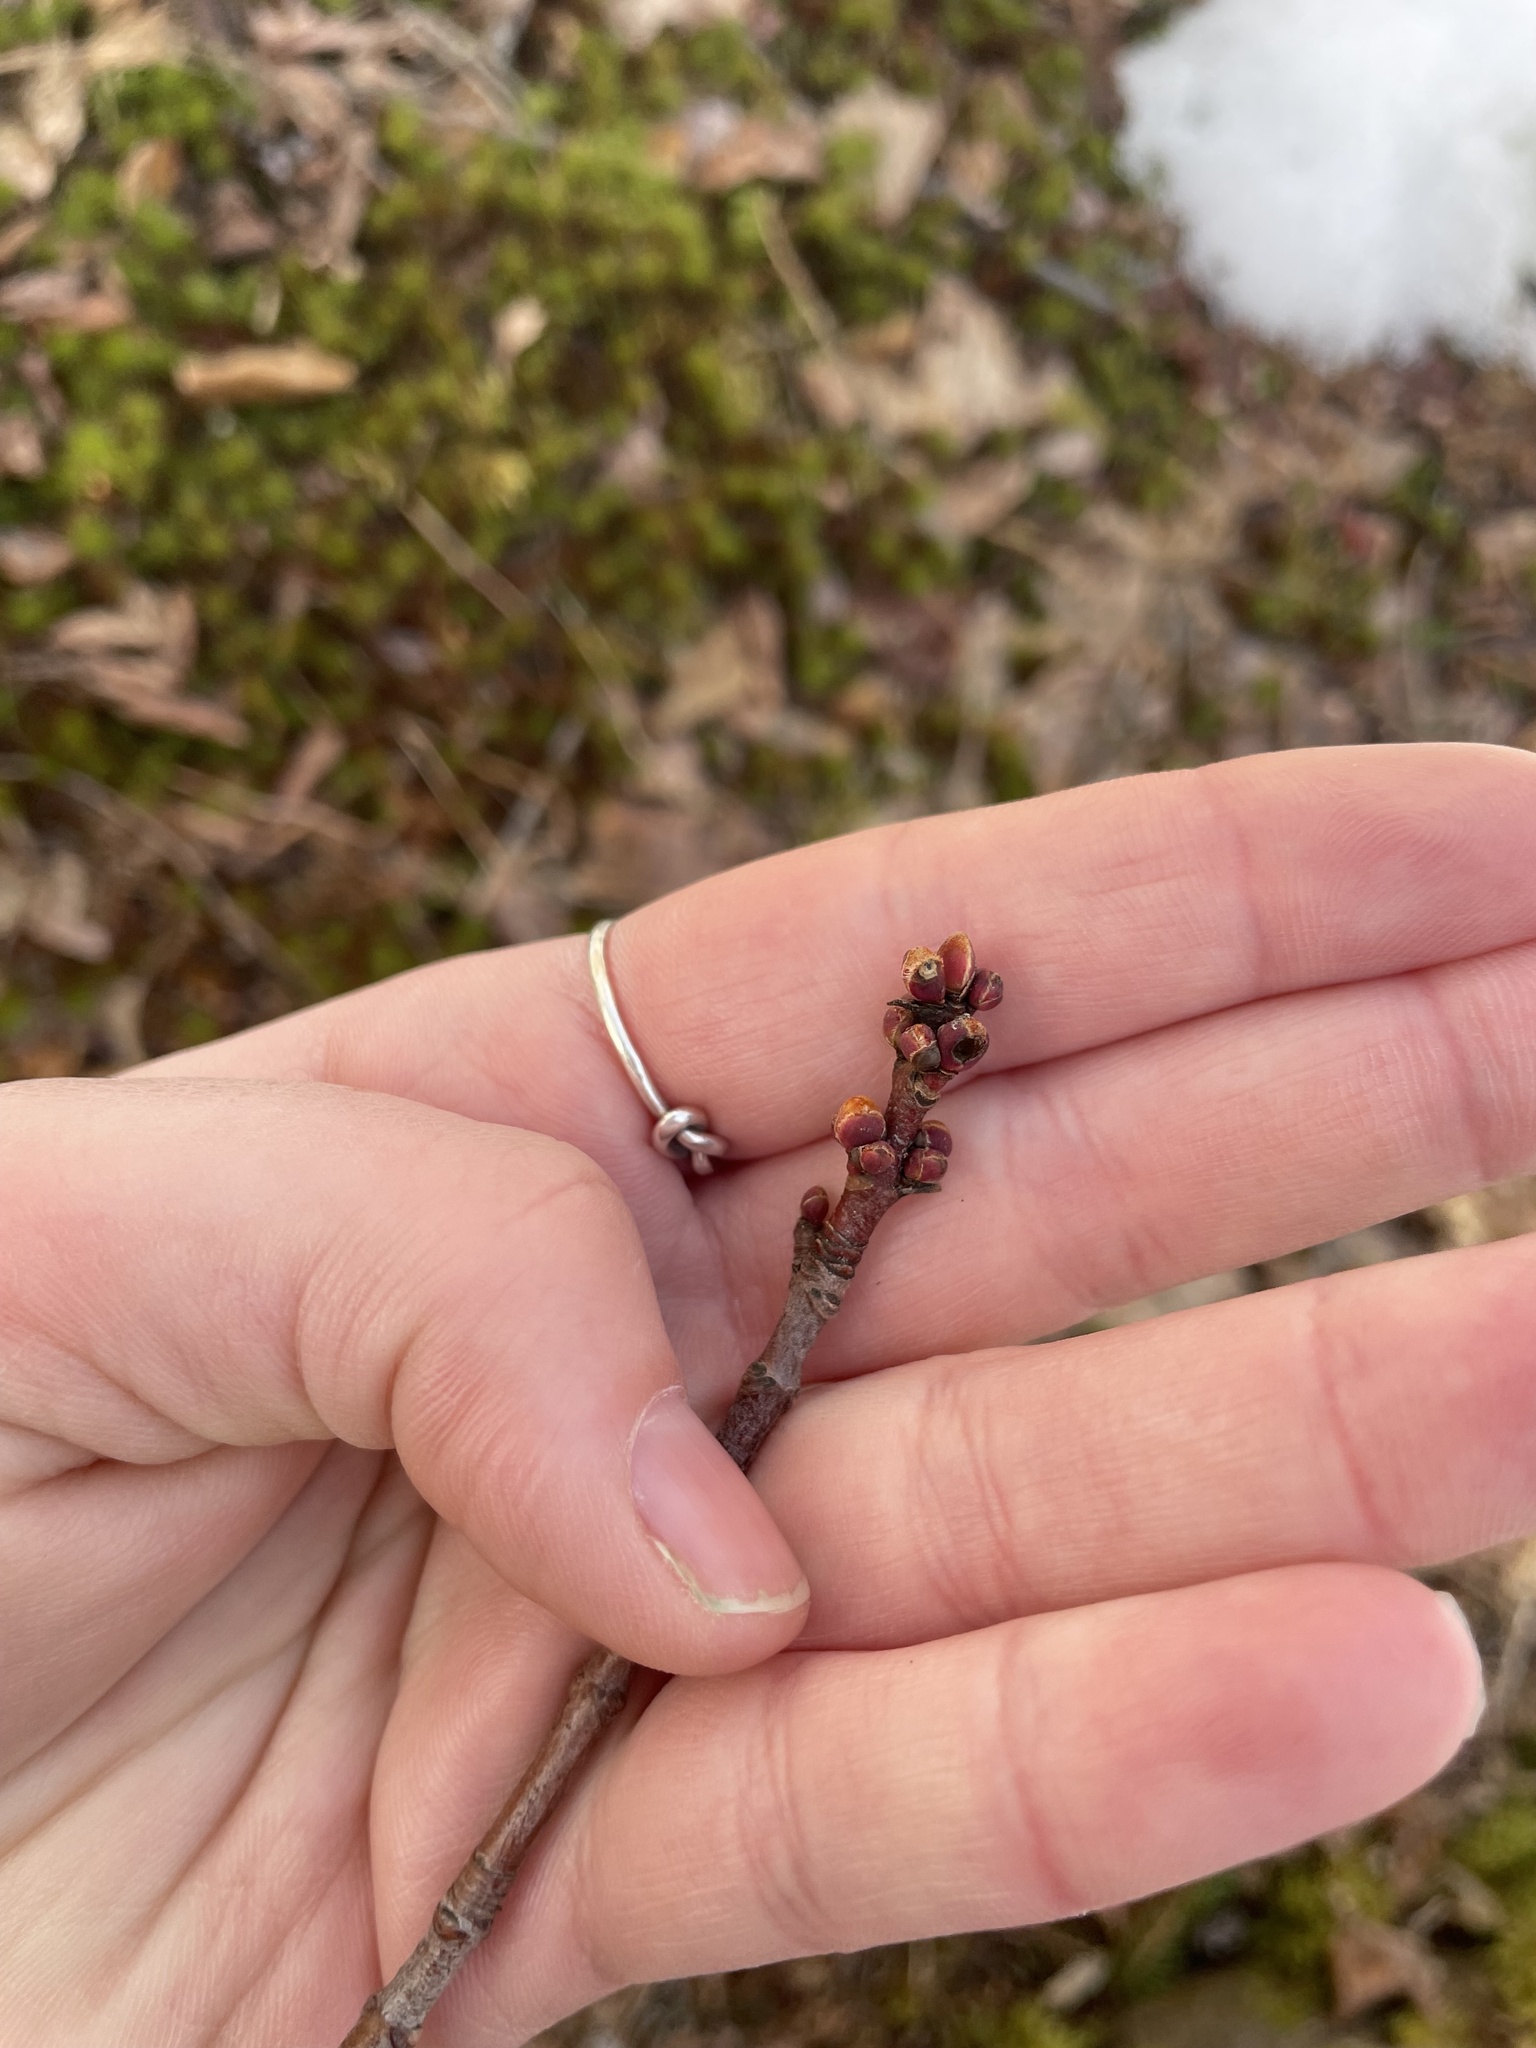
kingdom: Plantae
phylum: Tracheophyta
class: Magnoliopsida
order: Sapindales
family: Sapindaceae
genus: Acer
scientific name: Acer rubrum
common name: Red maple
